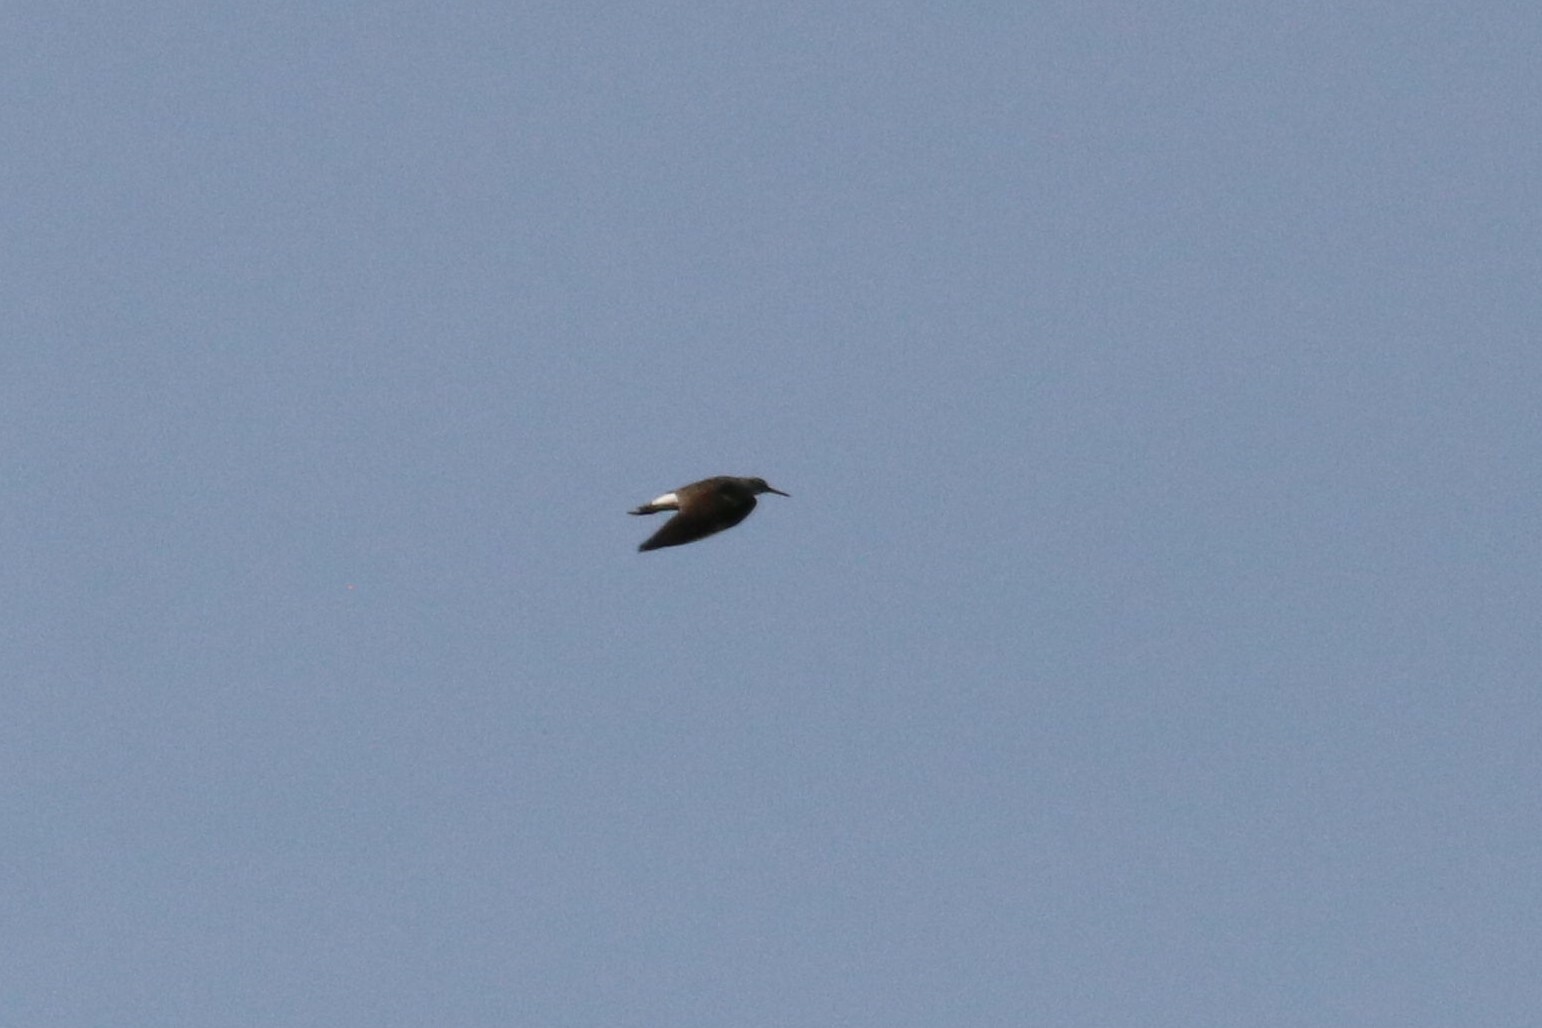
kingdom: Animalia
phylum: Chordata
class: Aves
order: Charadriiformes
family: Scolopacidae
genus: Tringa
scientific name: Tringa ochropus
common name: Green sandpiper
